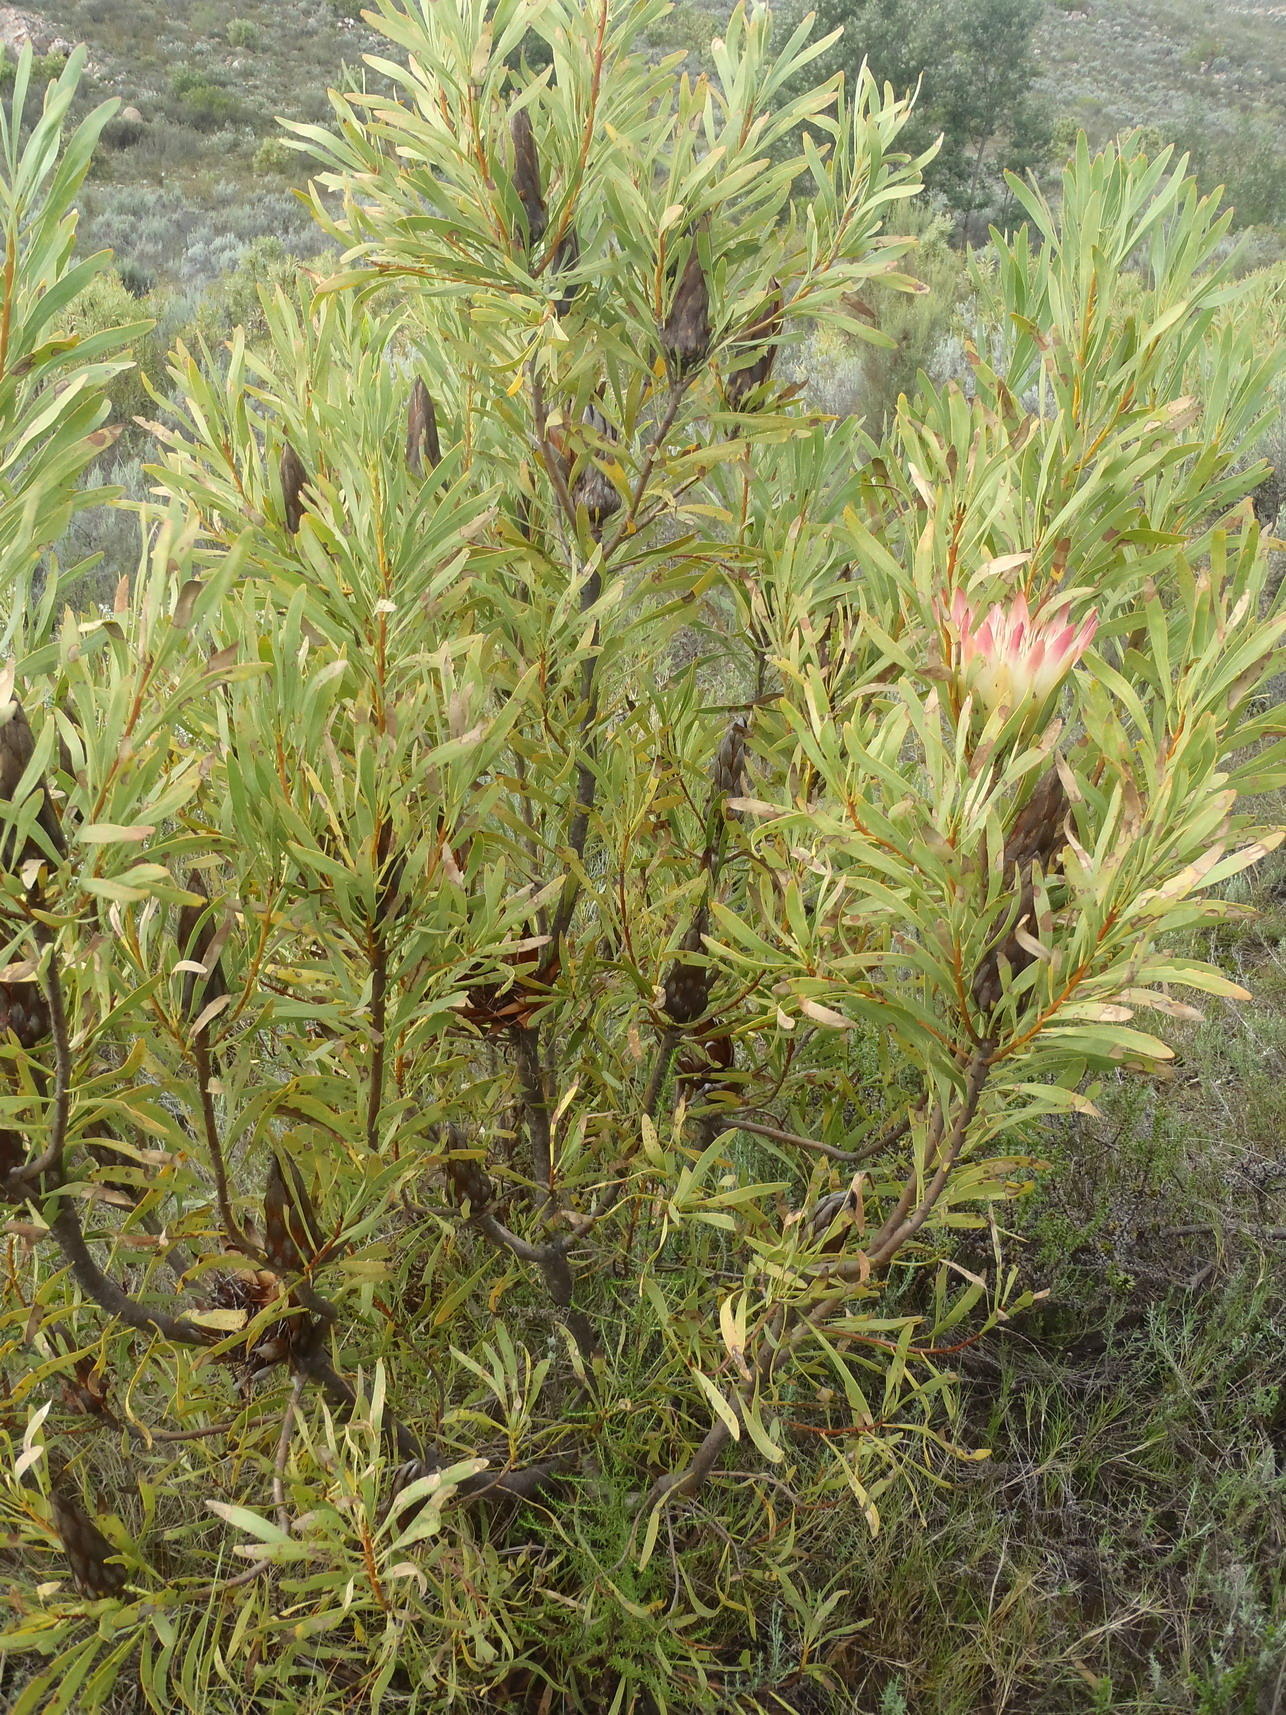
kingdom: Plantae
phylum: Tracheophyta
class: Magnoliopsida
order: Proteales
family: Proteaceae
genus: Protea
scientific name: Protea repens
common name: Sugarbush
